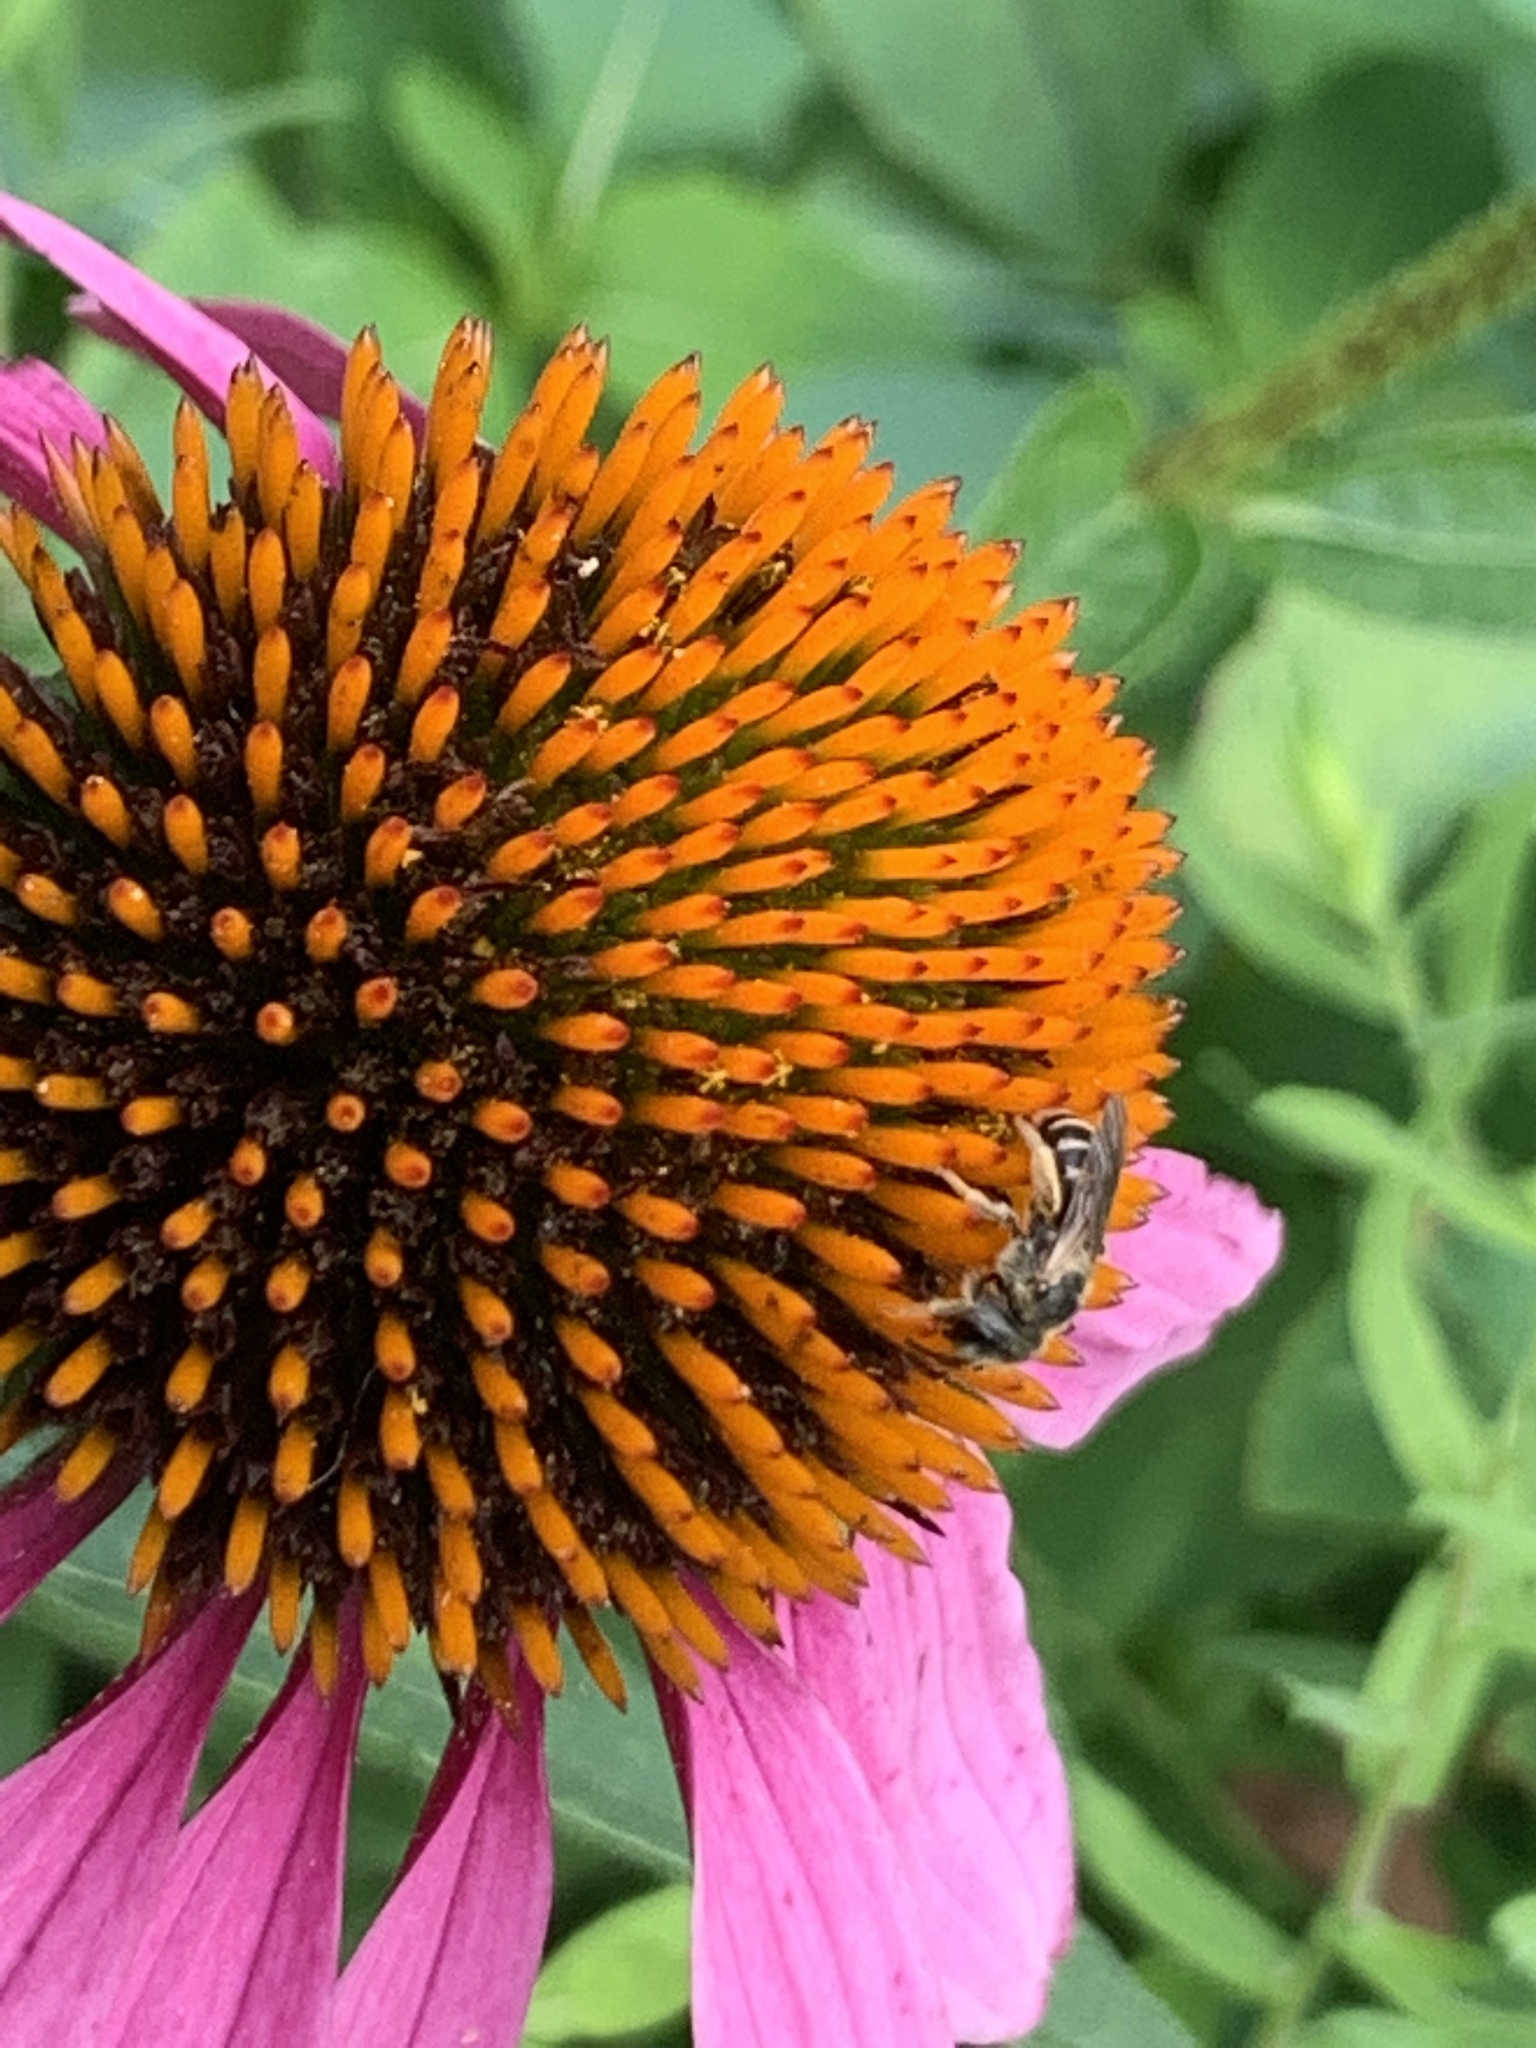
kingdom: Animalia
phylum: Arthropoda
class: Insecta
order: Hymenoptera
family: Halictidae
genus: Halictus
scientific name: Halictus ligatus
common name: Ligated furrow bee
